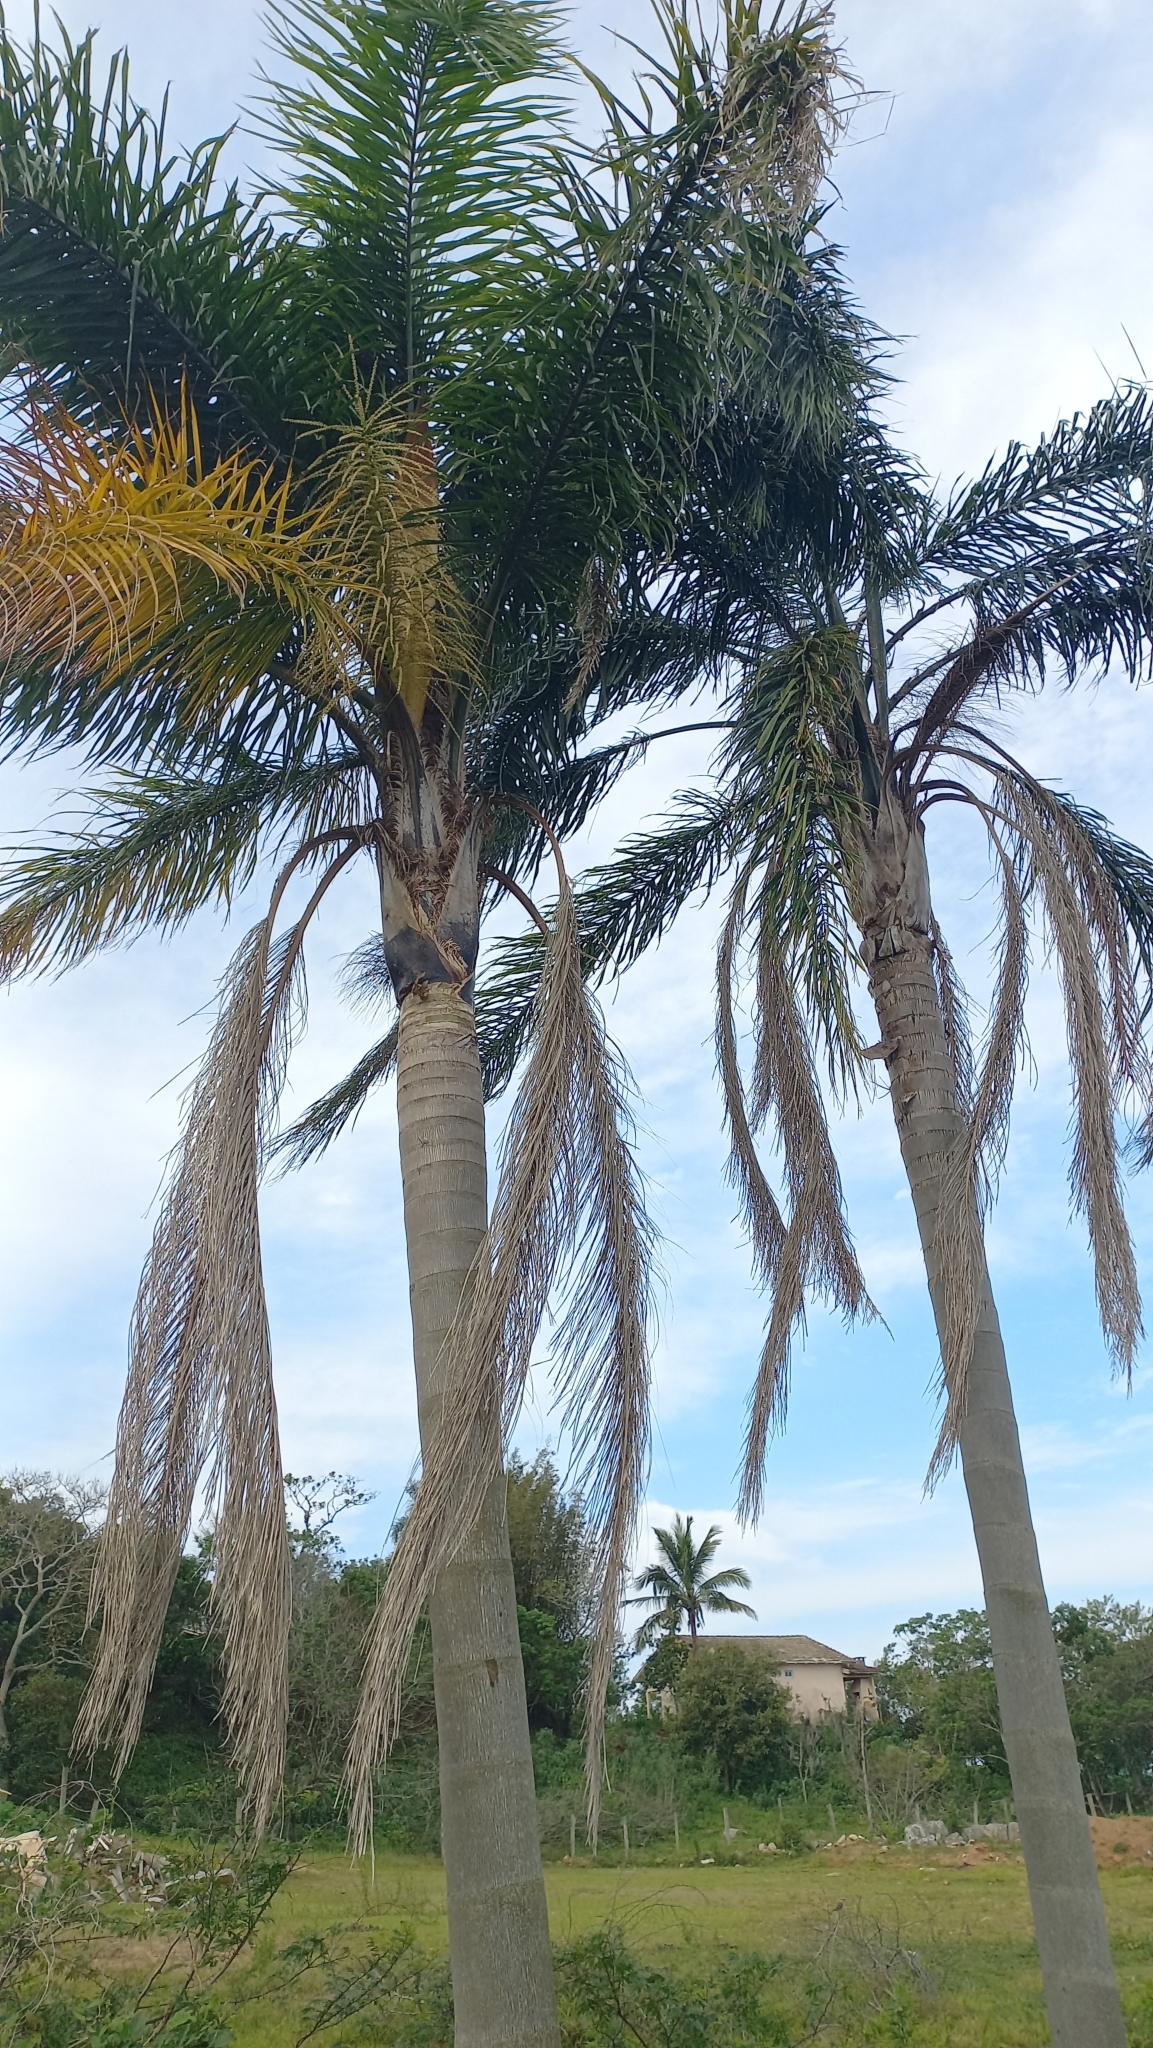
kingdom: Plantae
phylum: Tracheophyta
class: Liliopsida
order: Arecales
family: Arecaceae
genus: Syagrus
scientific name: Syagrus romanzoffiana
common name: Queen palm
